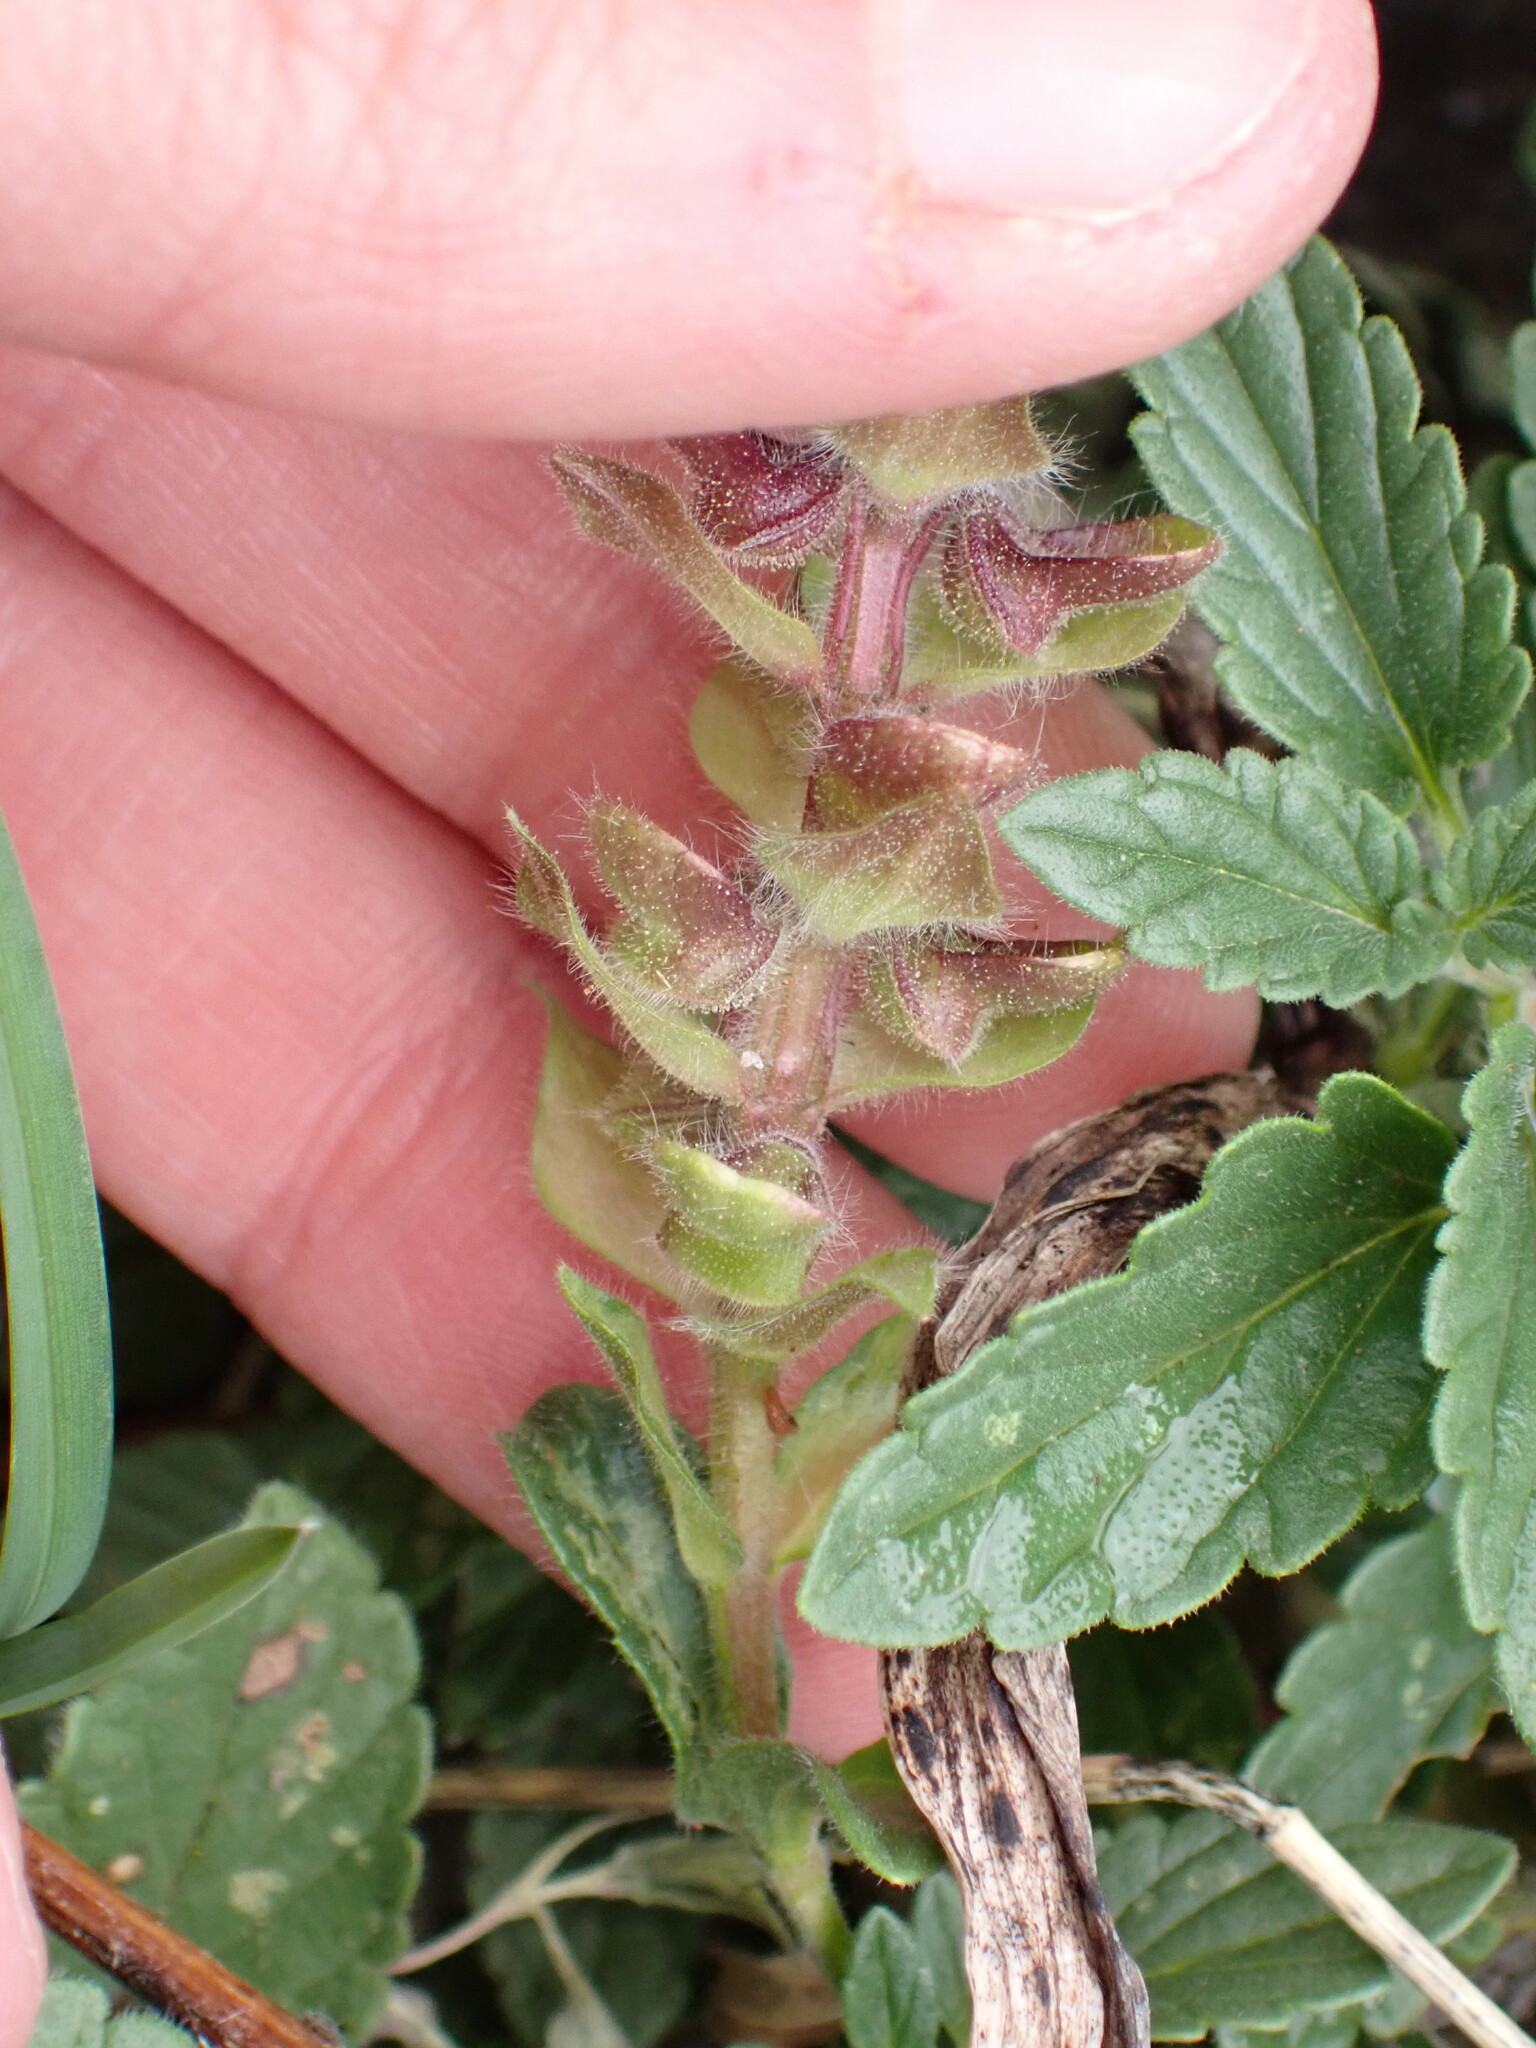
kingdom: Plantae
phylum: Tracheophyta
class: Magnoliopsida
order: Lamiales
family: Lamiaceae
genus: Scutellaria
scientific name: Scutellaria alpina
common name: Alpine scullcap
